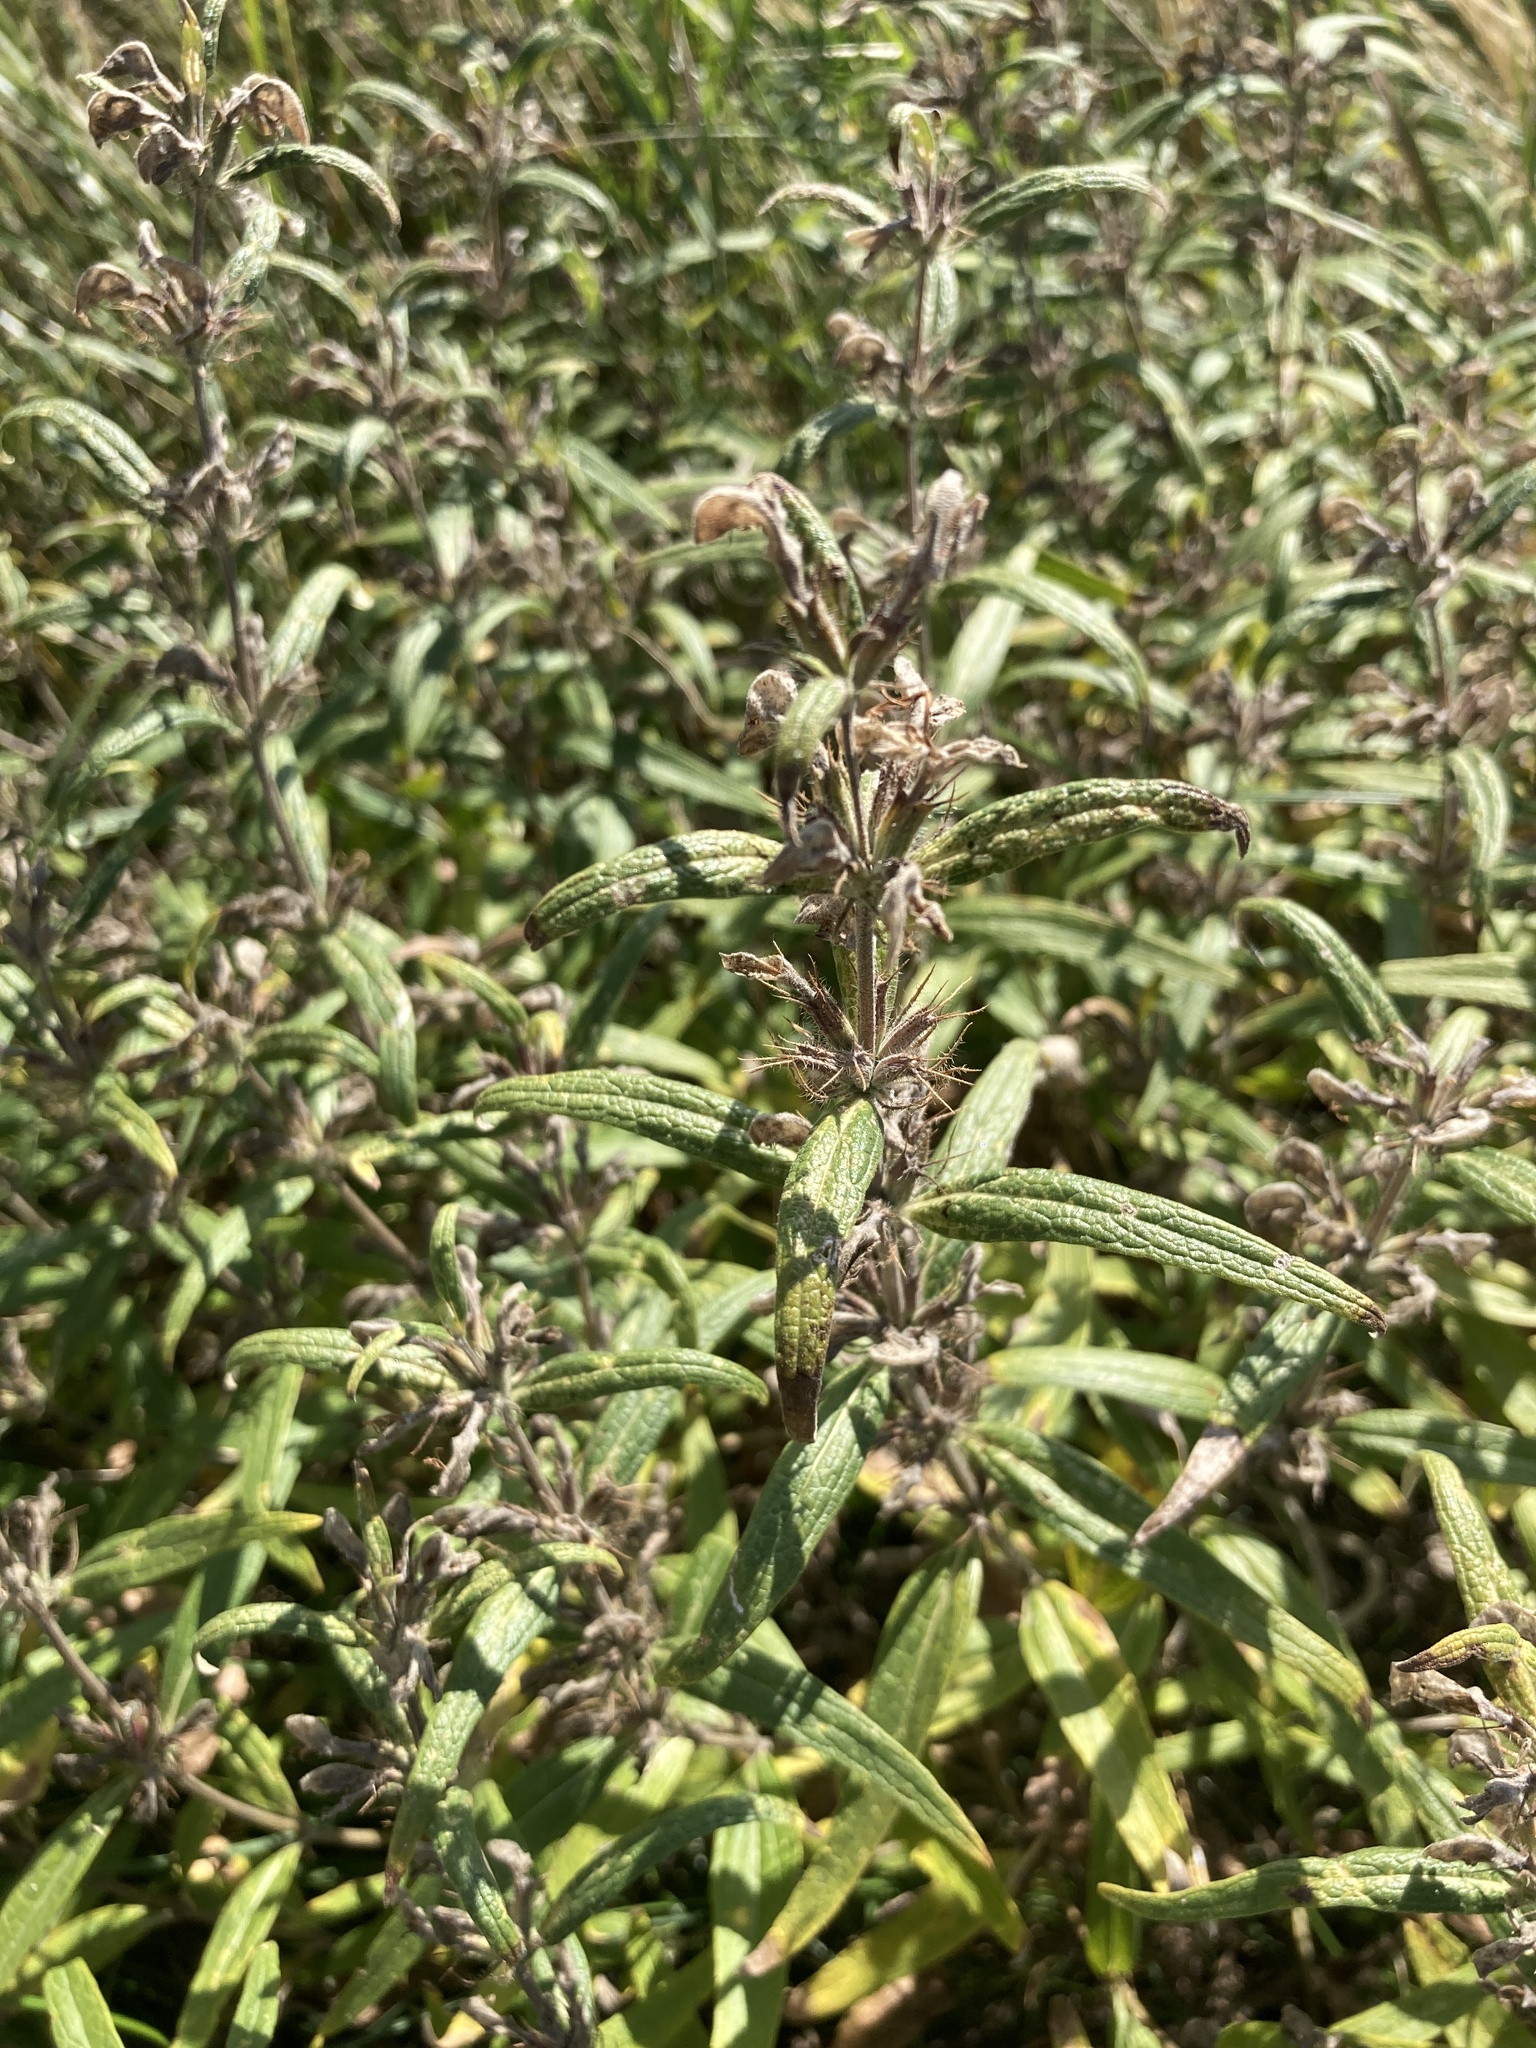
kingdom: Plantae
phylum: Tracheophyta
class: Magnoliopsida
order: Lamiales
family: Lamiaceae
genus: Phlomis
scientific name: Phlomis herba-venti
